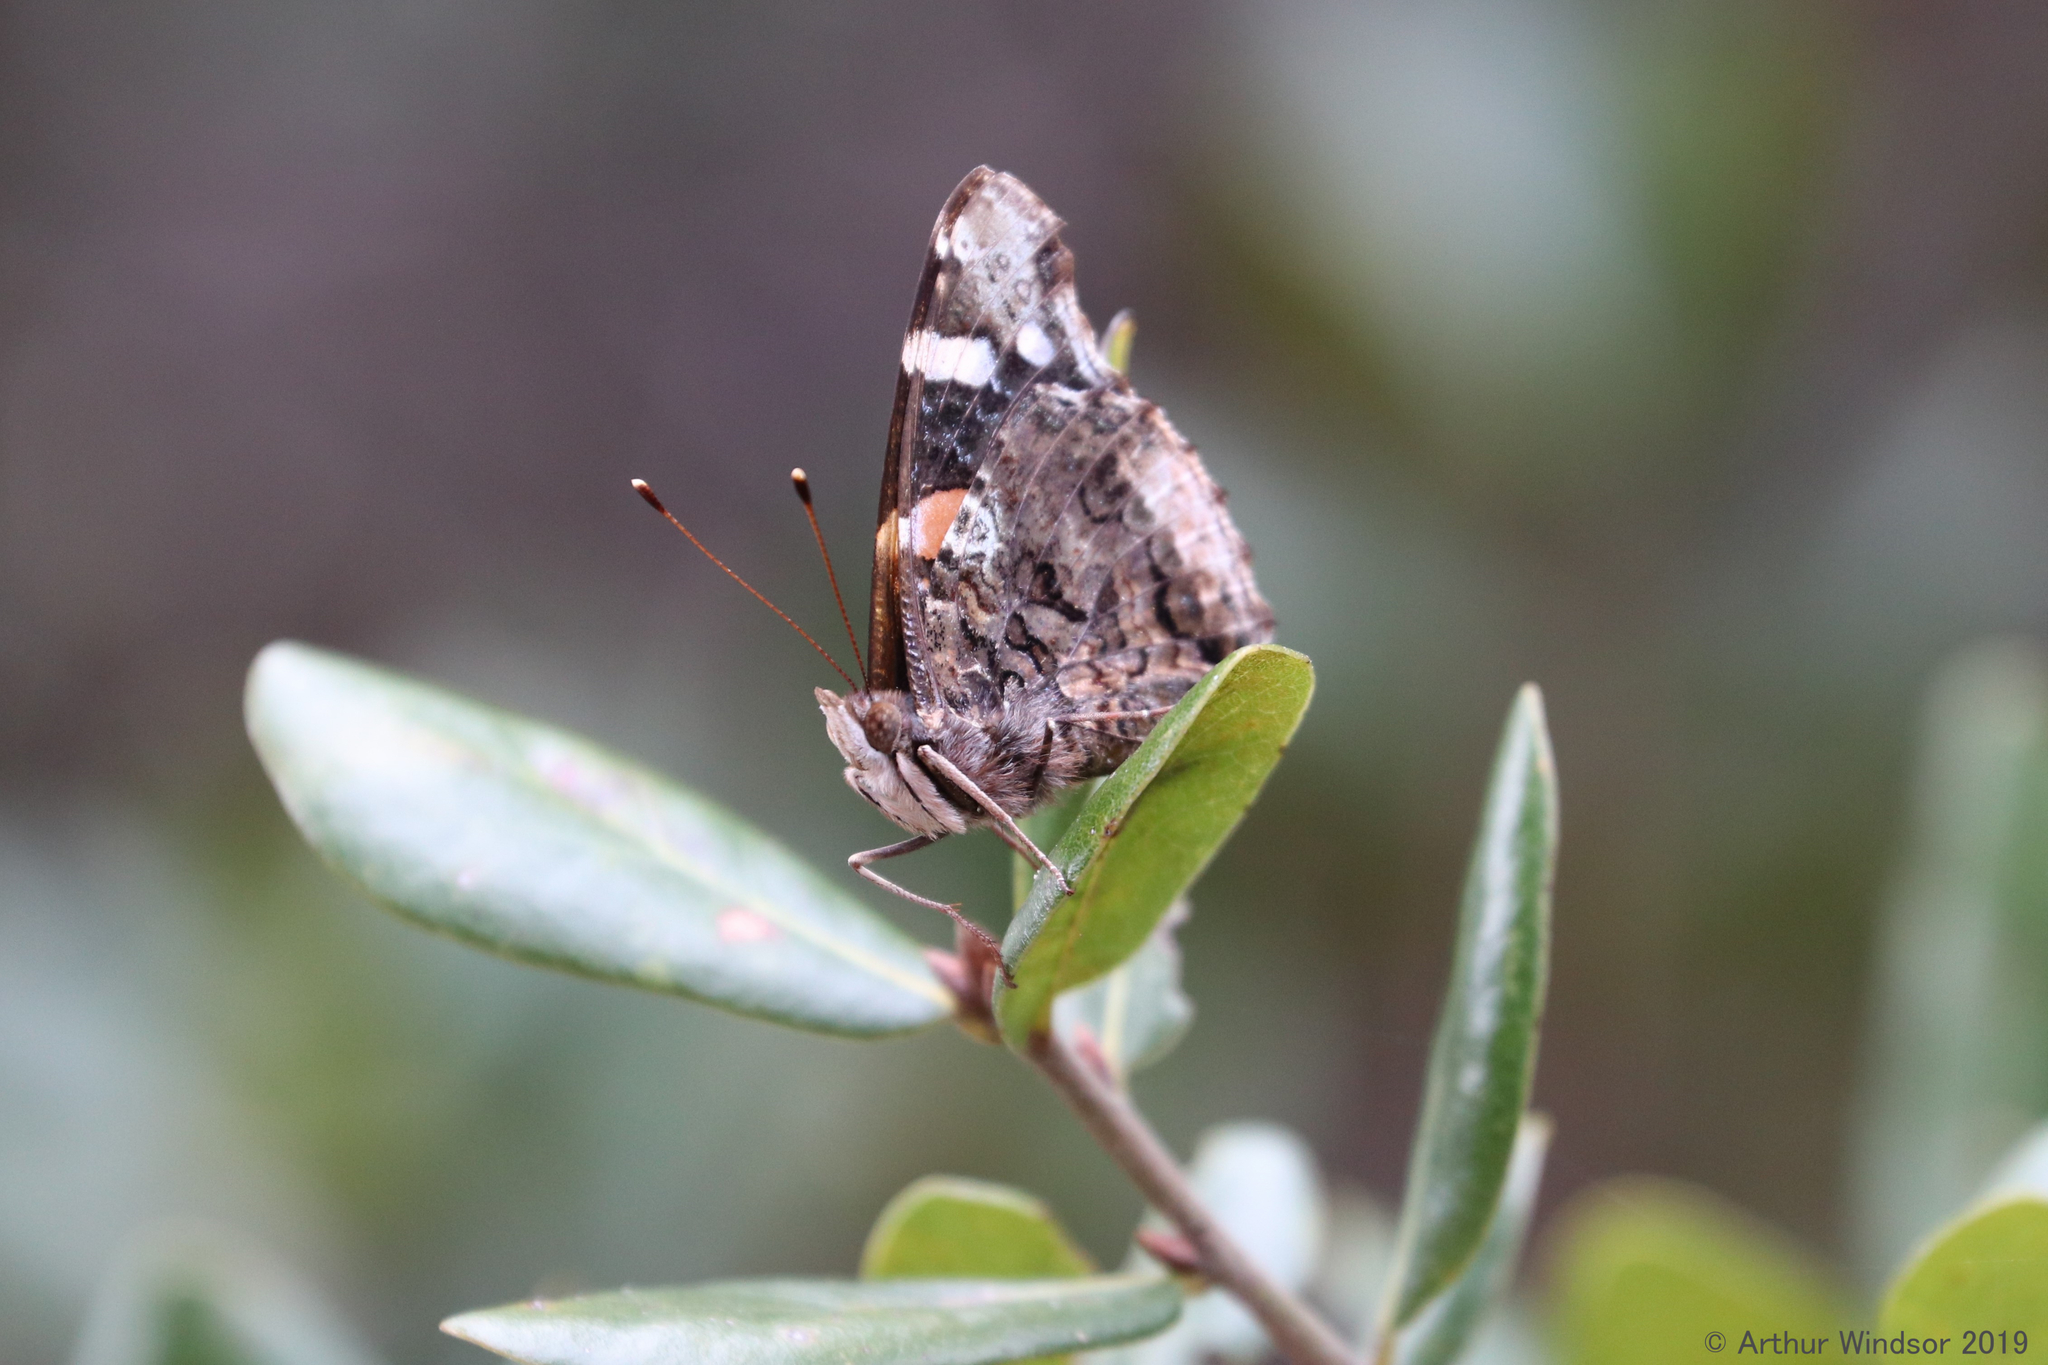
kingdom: Animalia
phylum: Arthropoda
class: Insecta
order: Lepidoptera
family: Nymphalidae
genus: Vanessa
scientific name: Vanessa atalanta
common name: Red admiral
